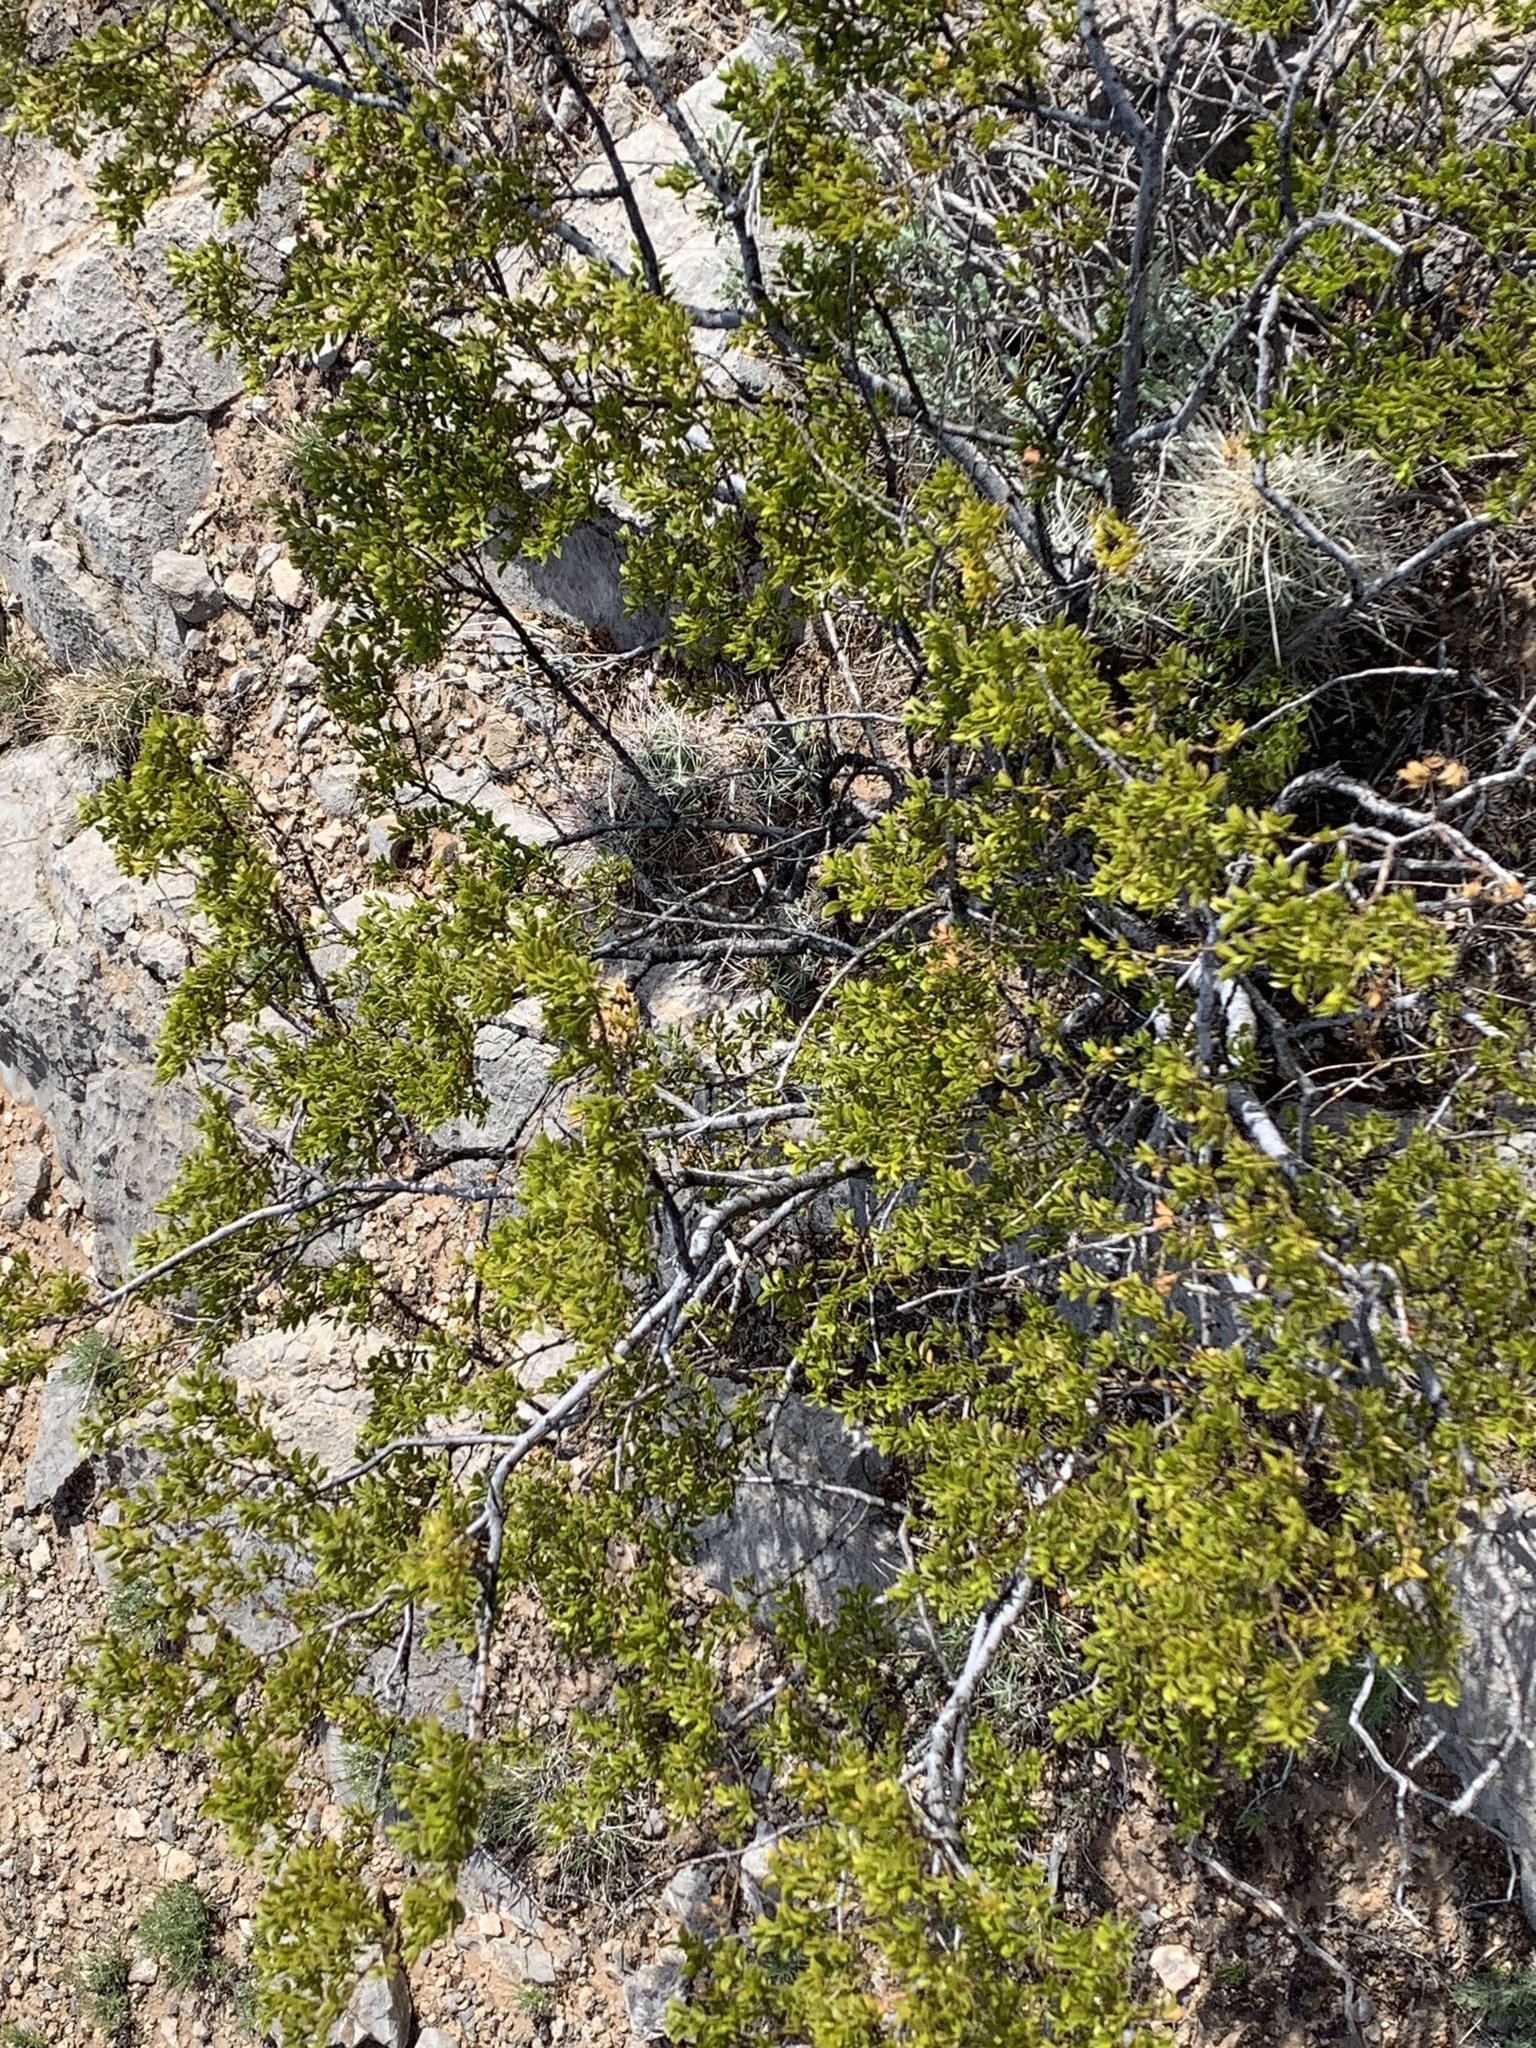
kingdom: Plantae
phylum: Tracheophyta
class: Magnoliopsida
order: Zygophyllales
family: Zygophyllaceae
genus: Larrea
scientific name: Larrea tridentata
